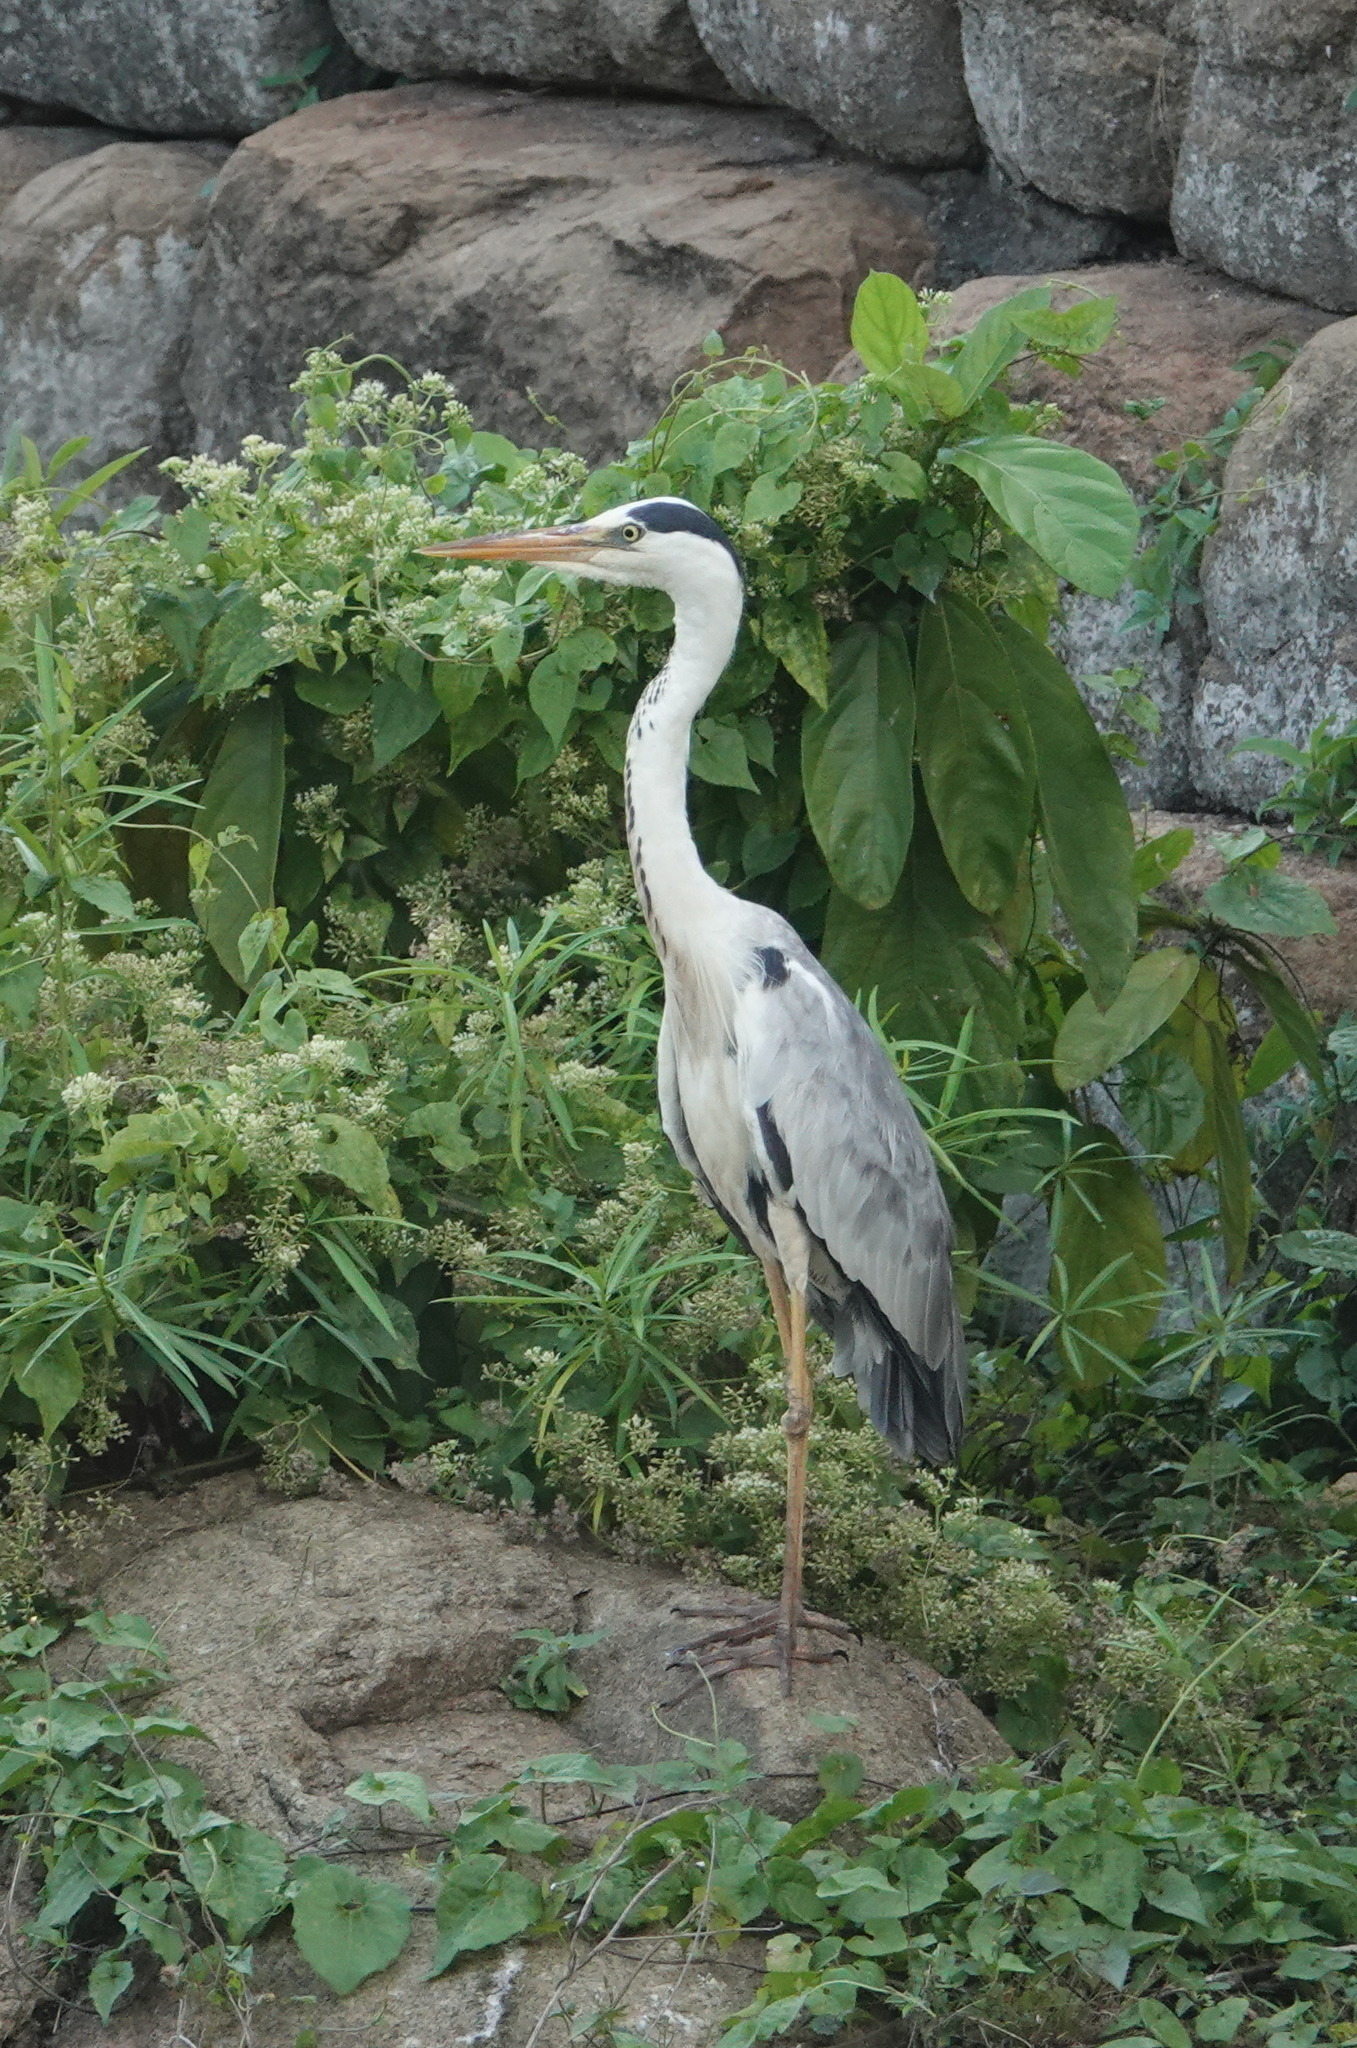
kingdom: Animalia
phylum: Chordata
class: Aves
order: Pelecaniformes
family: Ardeidae
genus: Ardea
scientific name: Ardea cinerea
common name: Grey heron
